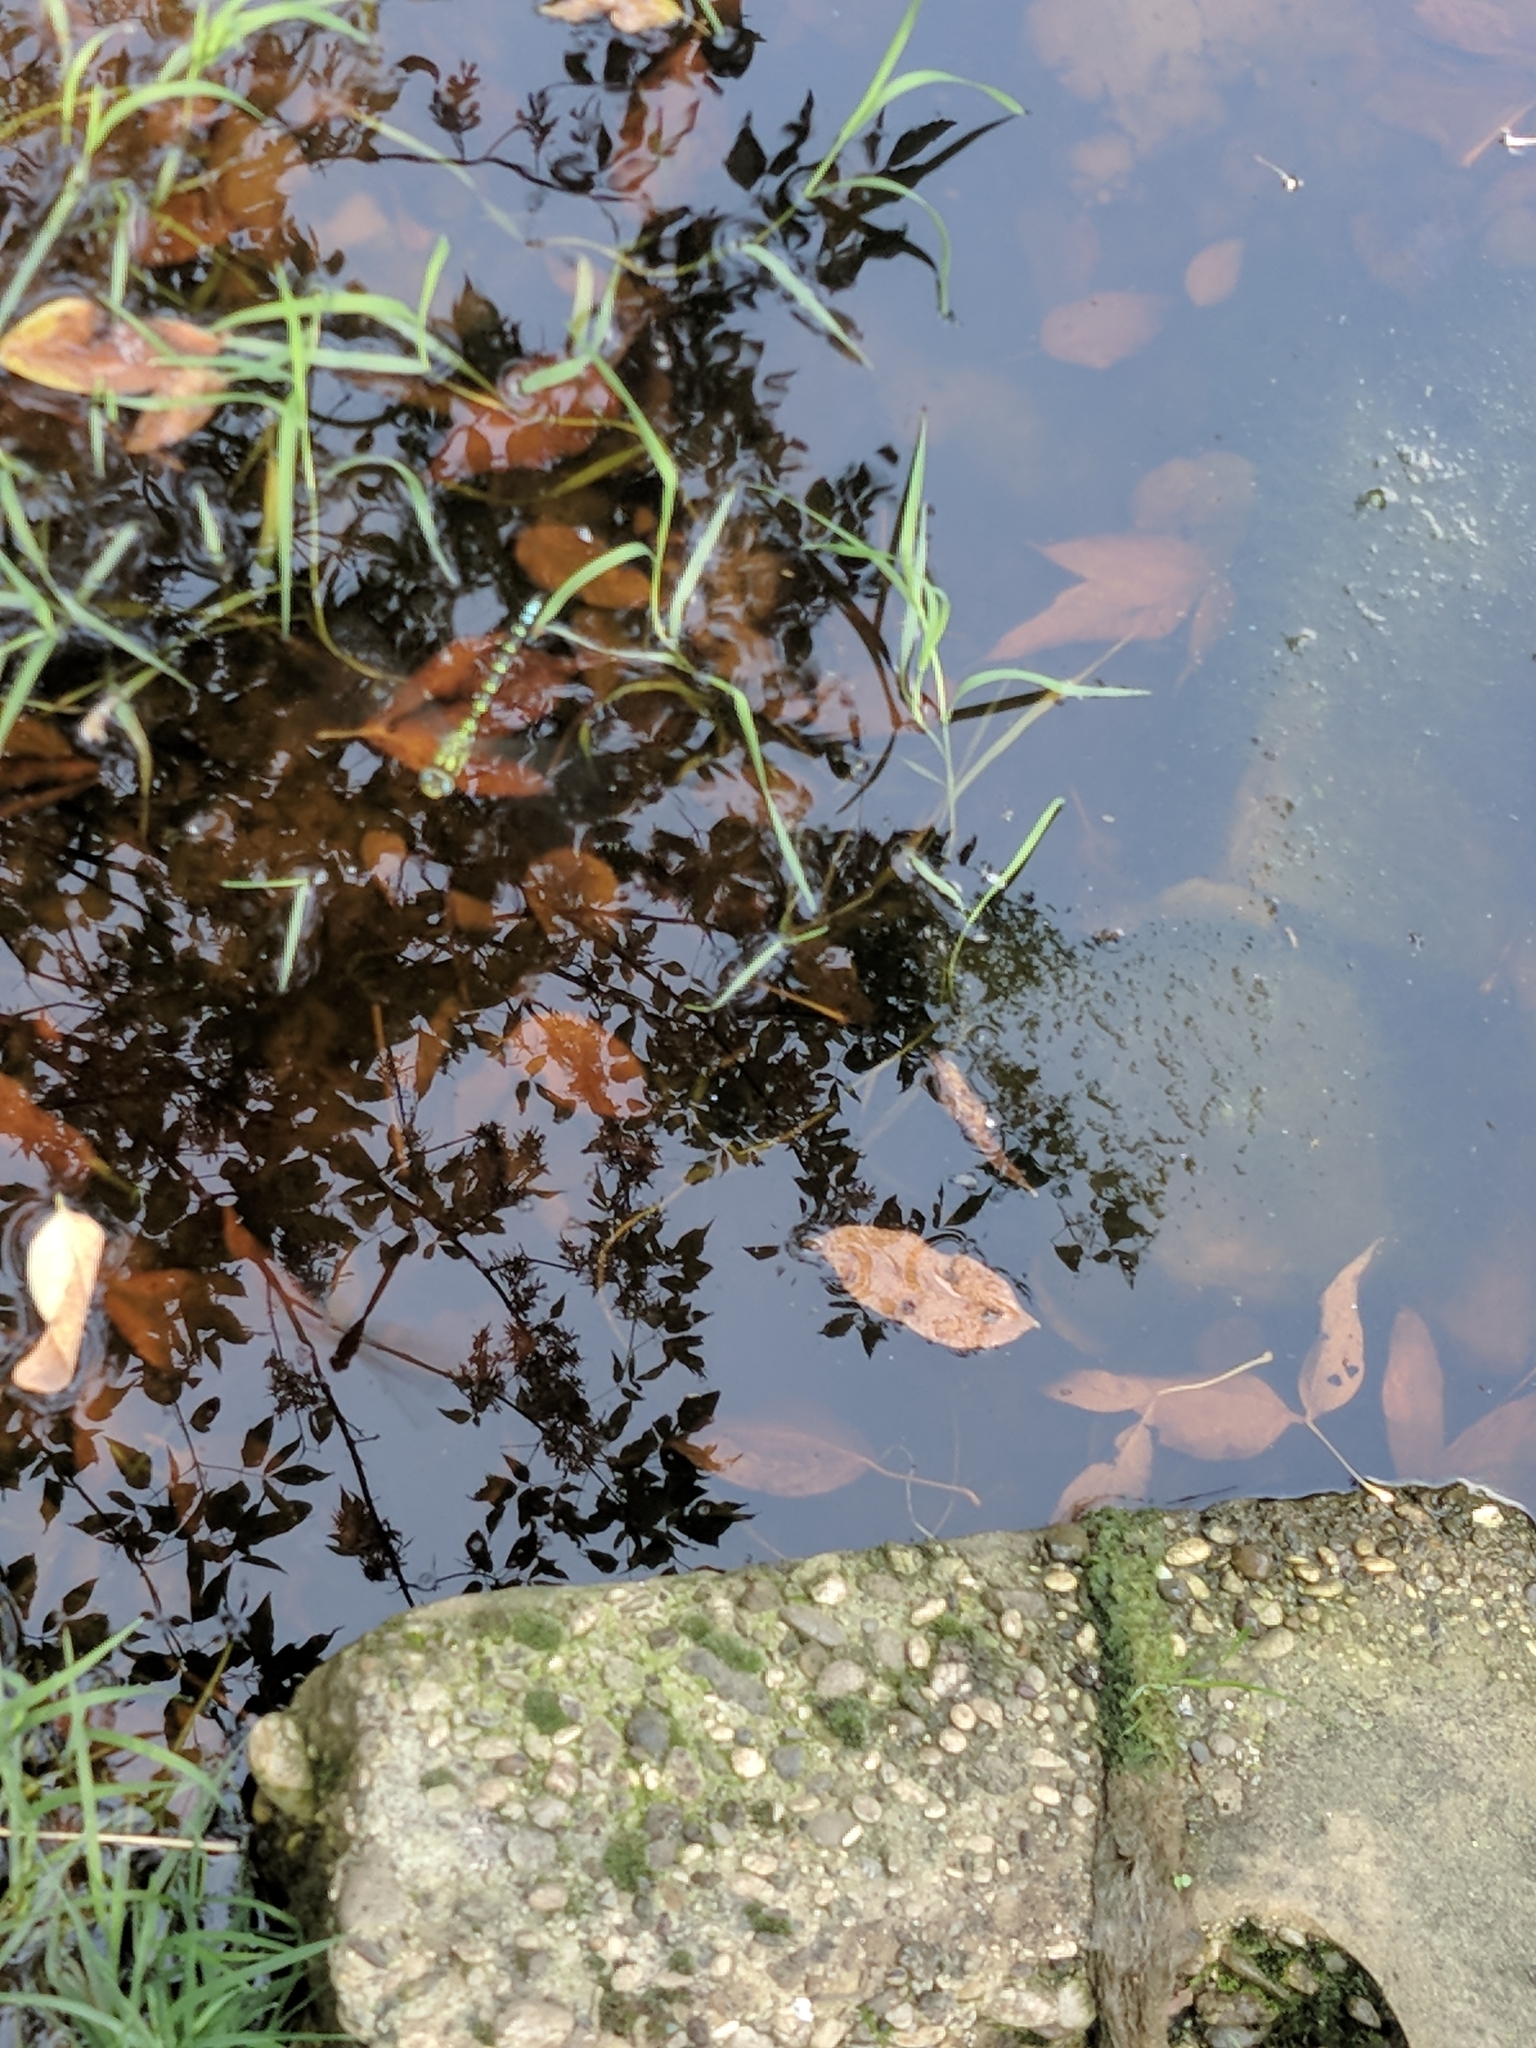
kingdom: Animalia
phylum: Arthropoda
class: Insecta
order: Odonata
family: Aeshnidae
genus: Aeshna
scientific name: Aeshna cyanea
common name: Southern hawker
